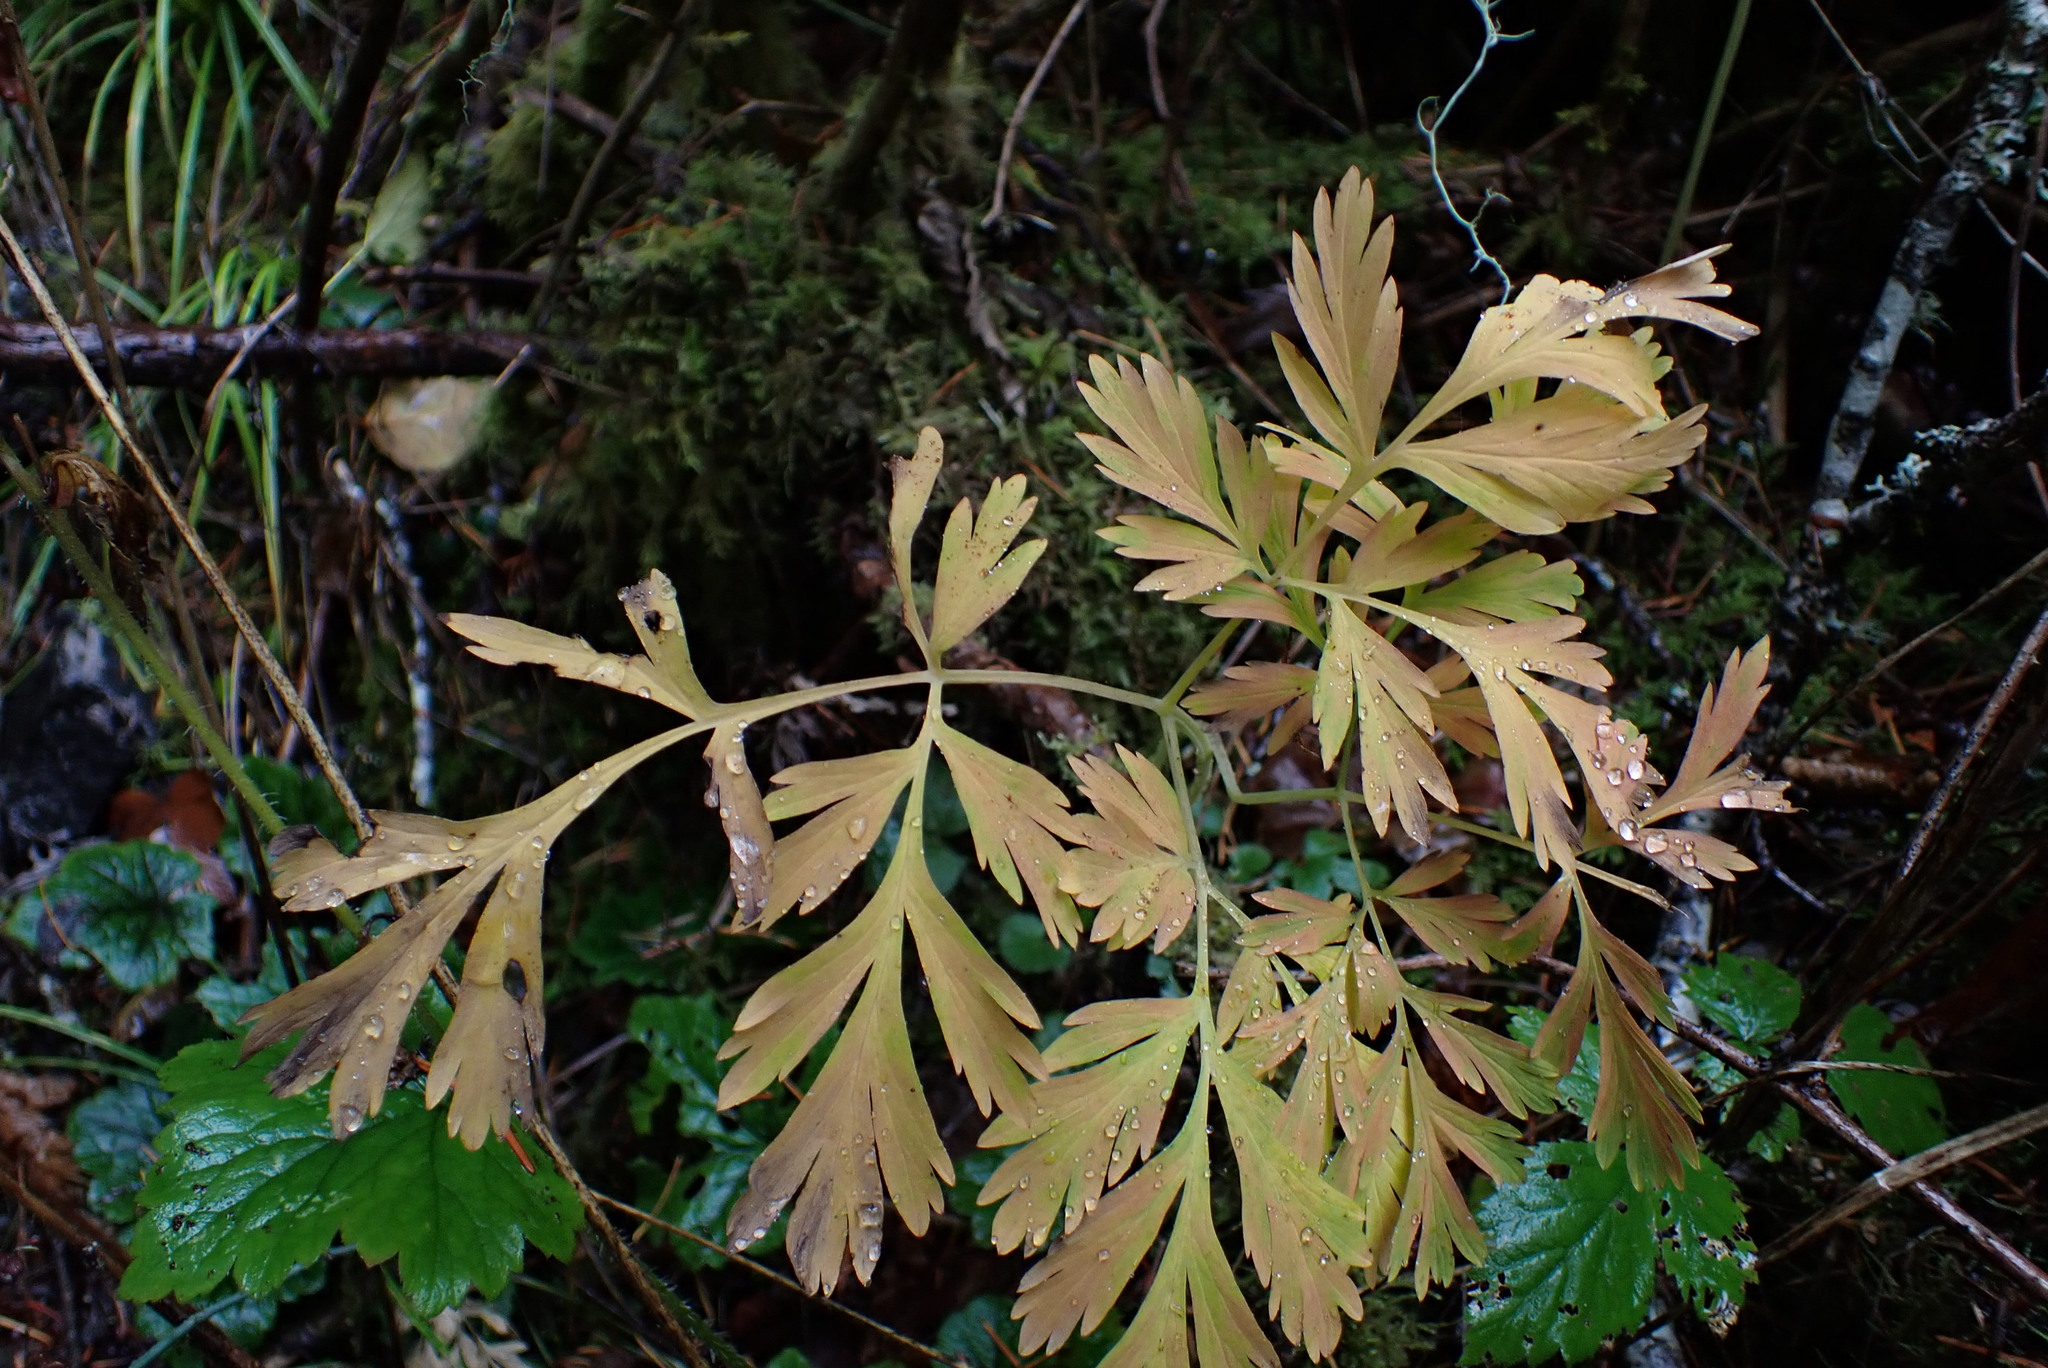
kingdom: Plantae
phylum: Tracheophyta
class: Magnoliopsida
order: Ranunculales
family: Papaveraceae
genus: Dicentra
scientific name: Dicentra formosa
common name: Bleeding-heart
